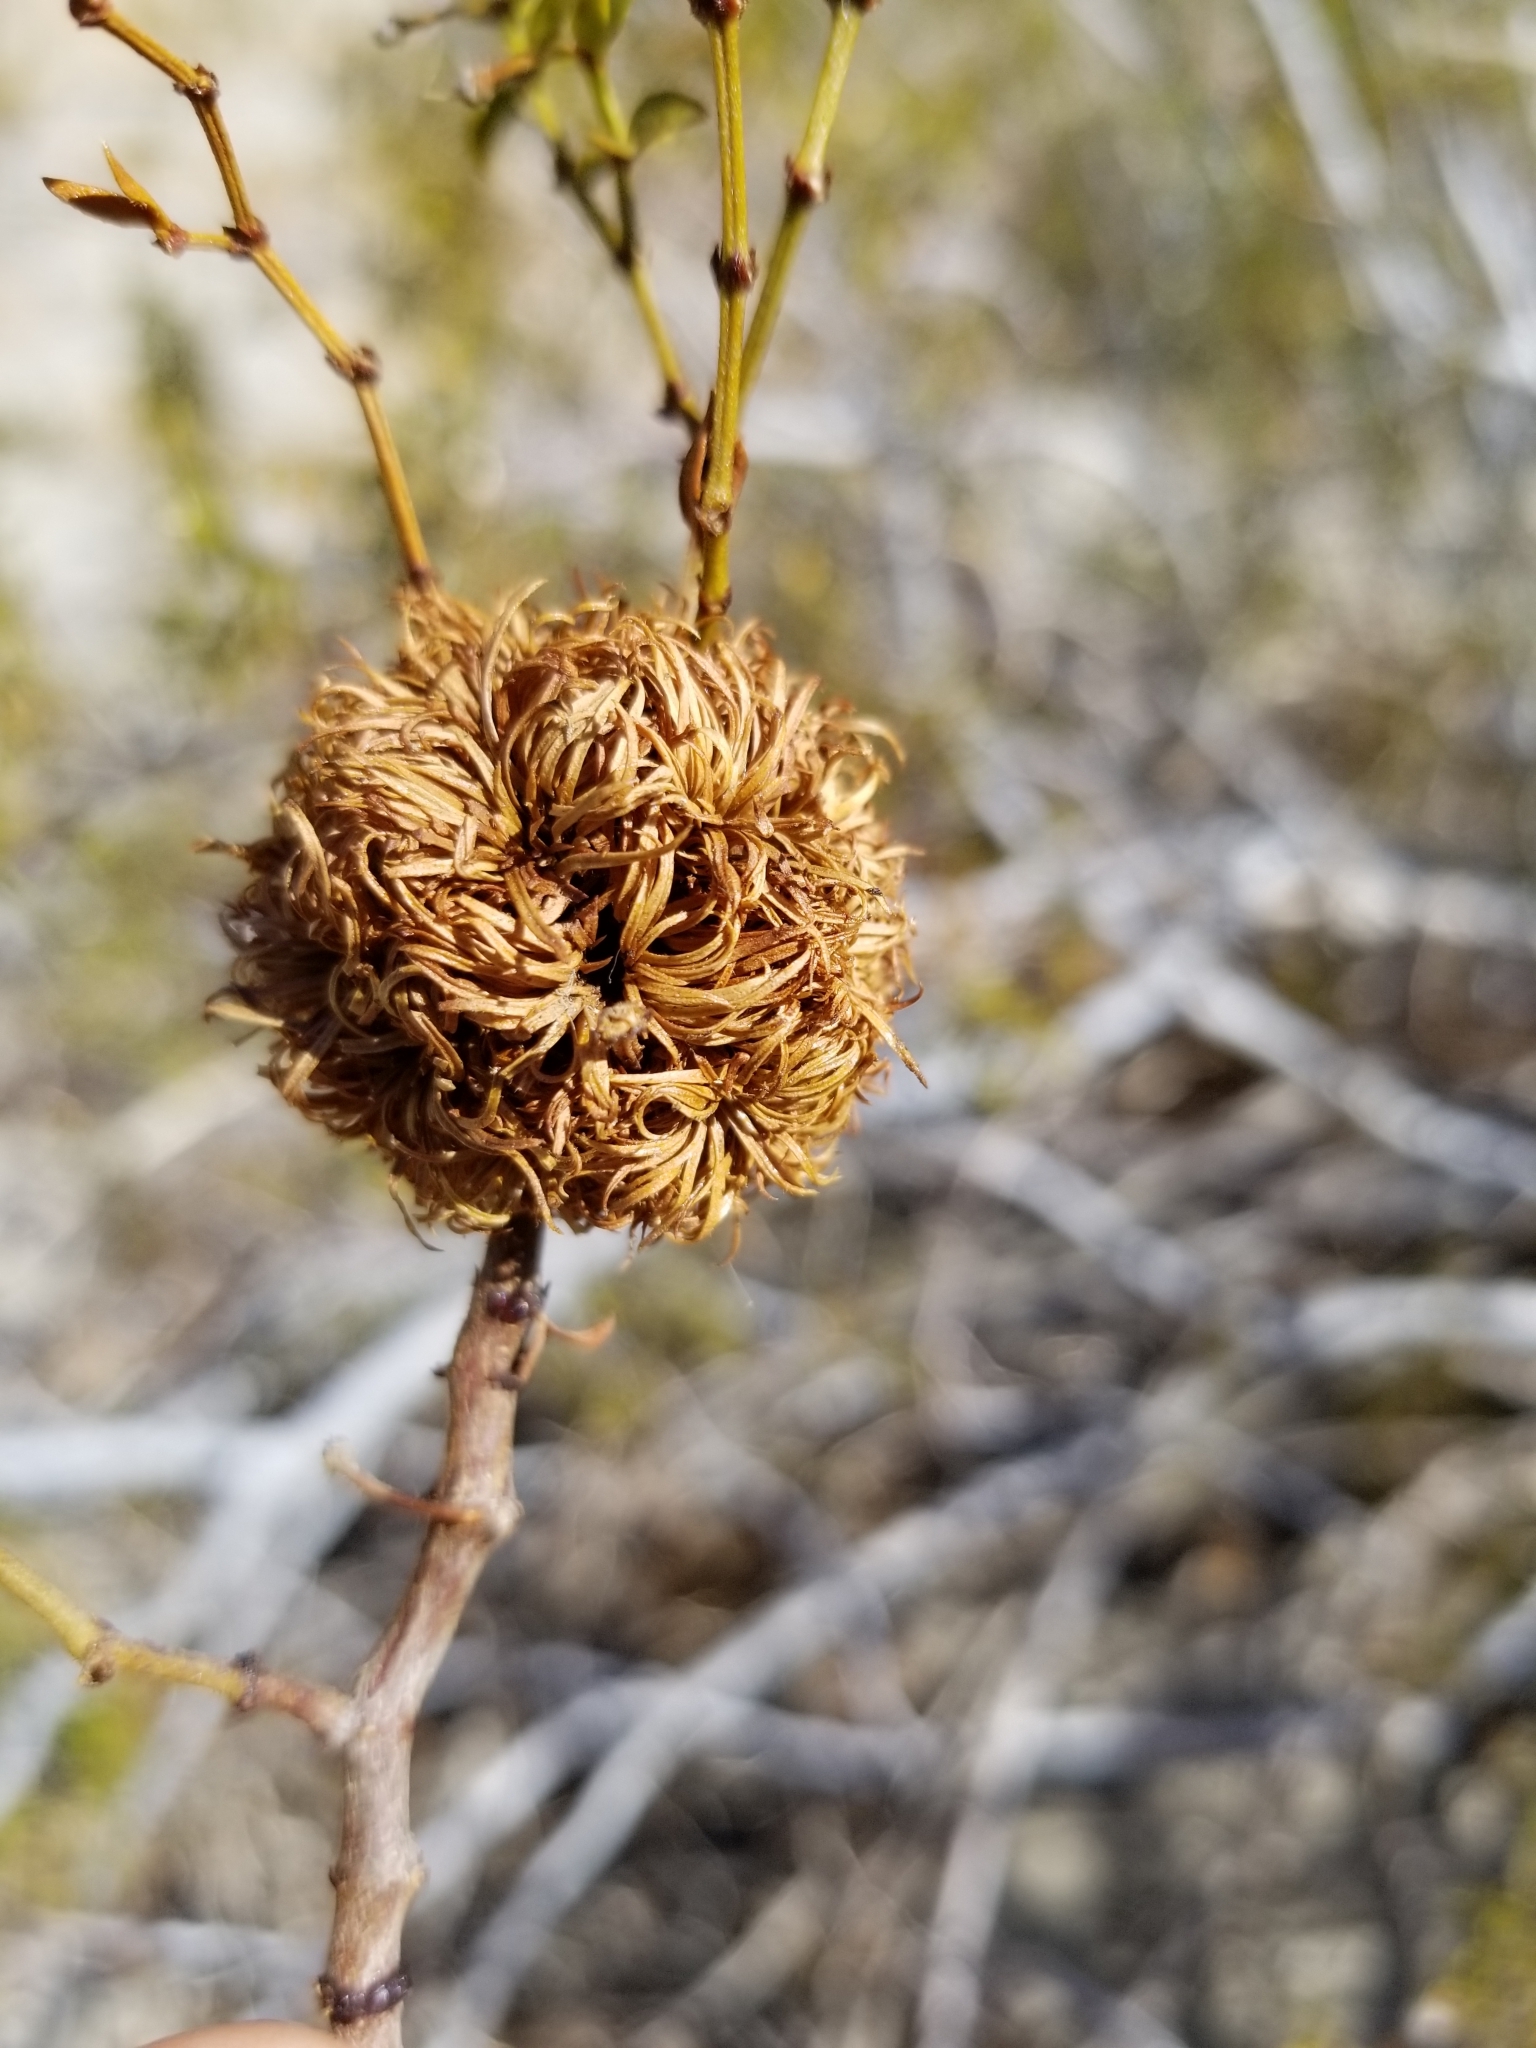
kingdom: Animalia
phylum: Arthropoda
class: Insecta
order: Diptera
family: Cecidomyiidae
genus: Asphondylia
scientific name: Asphondylia auripila
